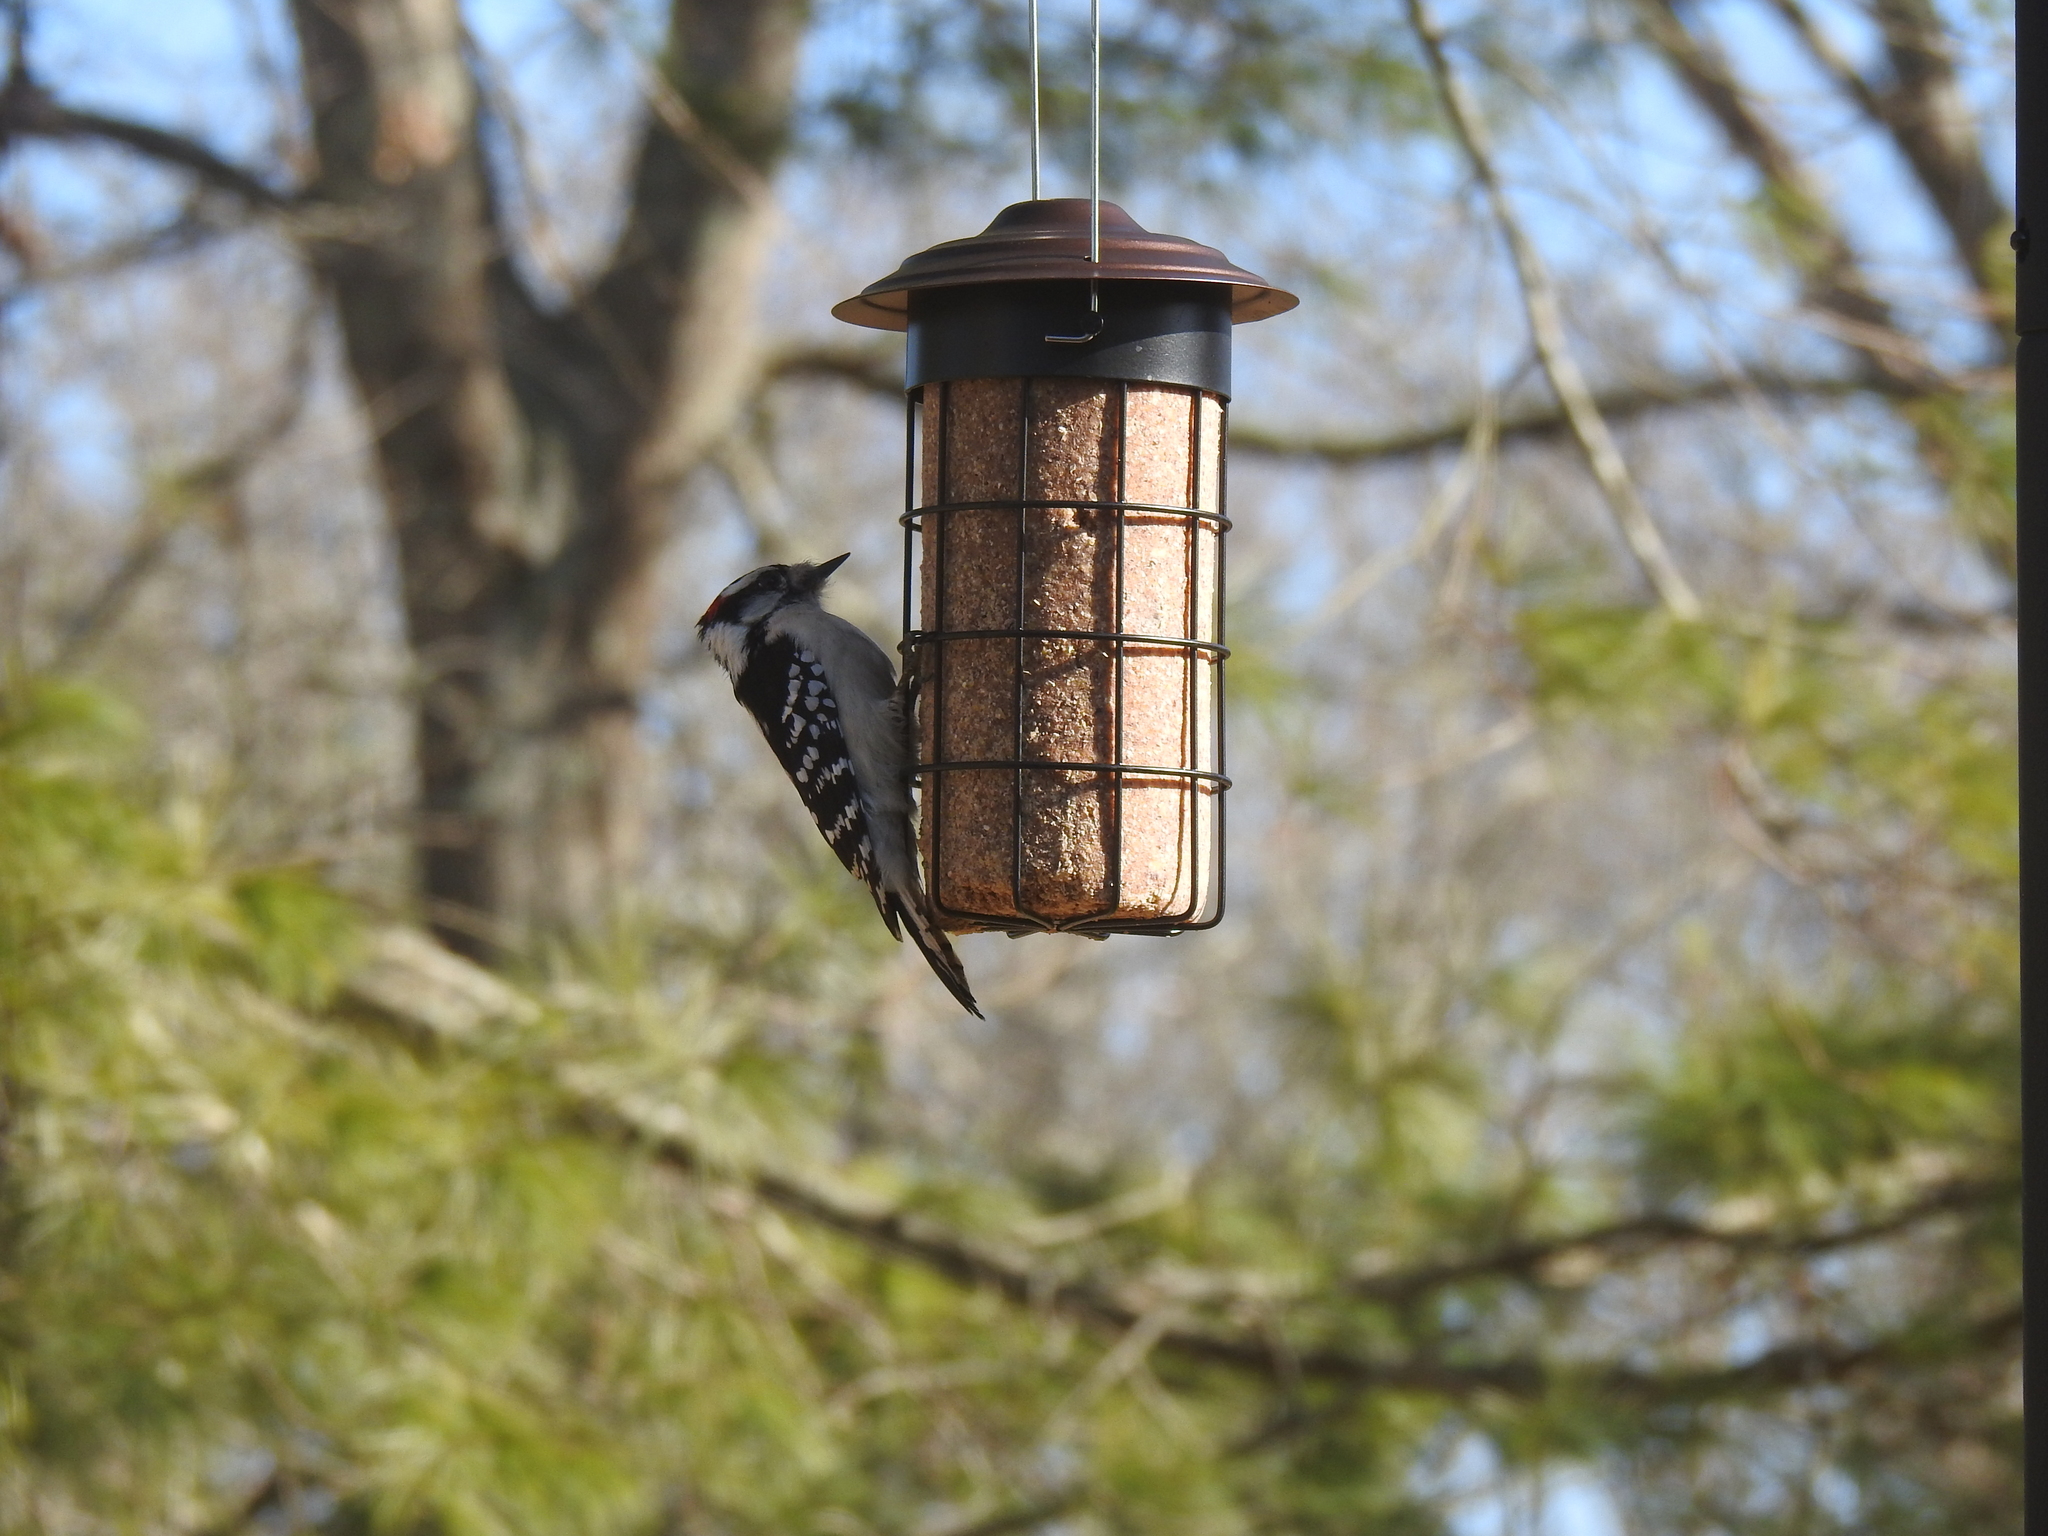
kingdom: Animalia
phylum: Chordata
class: Aves
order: Piciformes
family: Picidae
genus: Dryobates
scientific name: Dryobates pubescens
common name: Downy woodpecker
